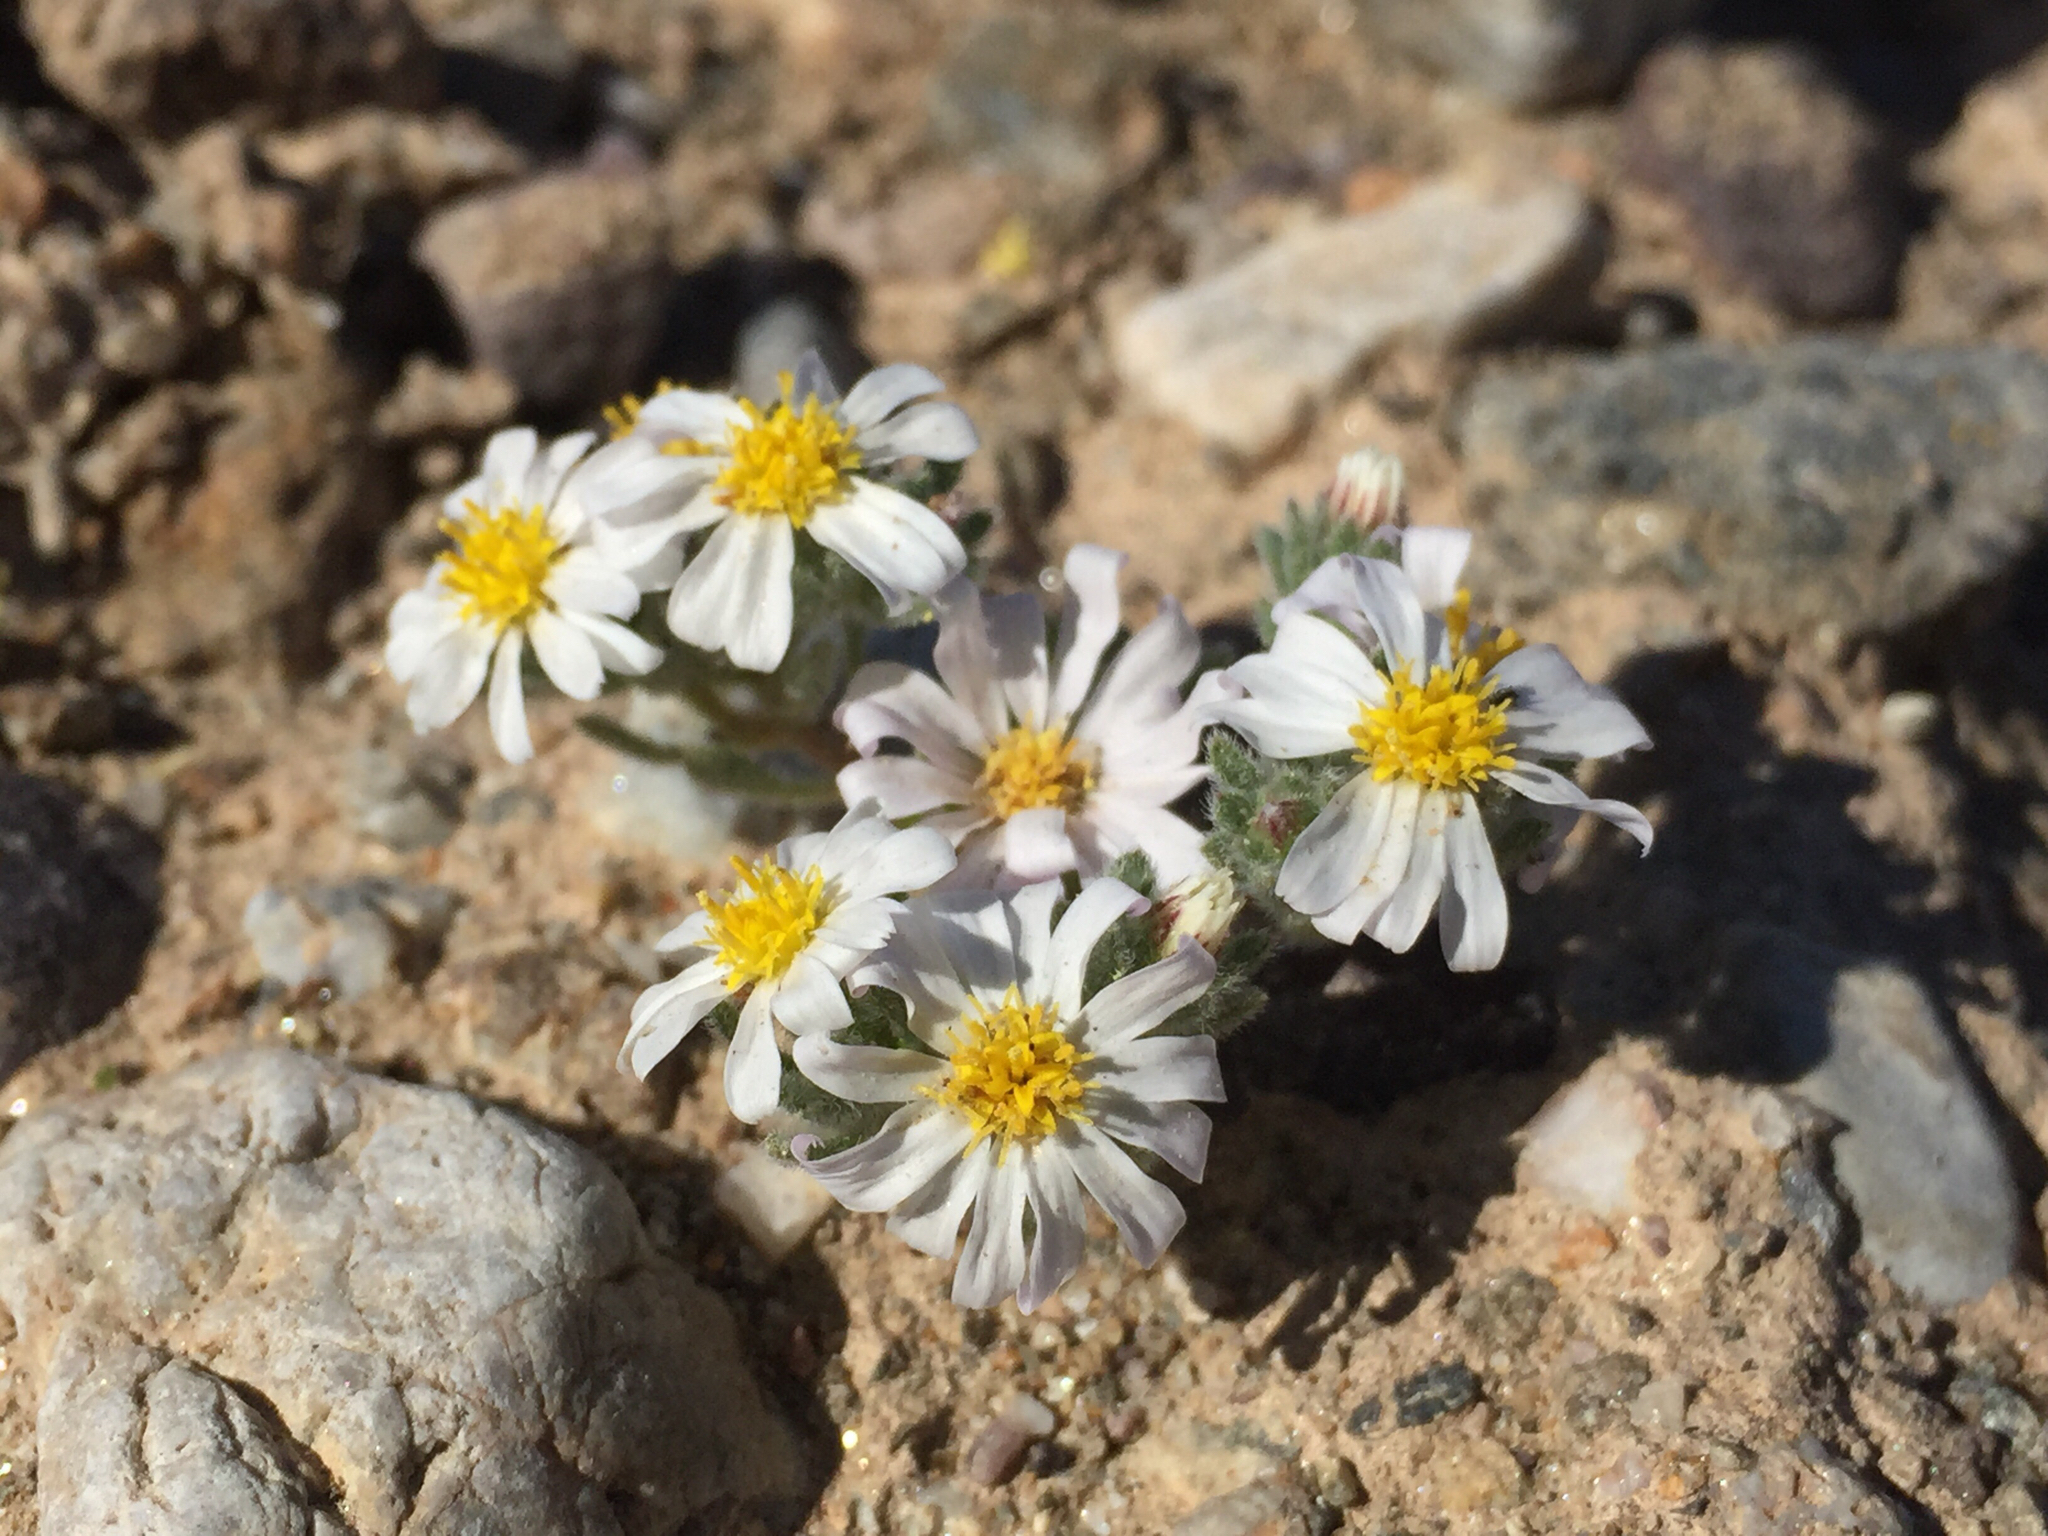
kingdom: Plantae
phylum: Tracheophyta
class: Magnoliopsida
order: Asterales
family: Asteraceae
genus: Monoptilon
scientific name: Monoptilon bellioides
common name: Bristly desertstar
